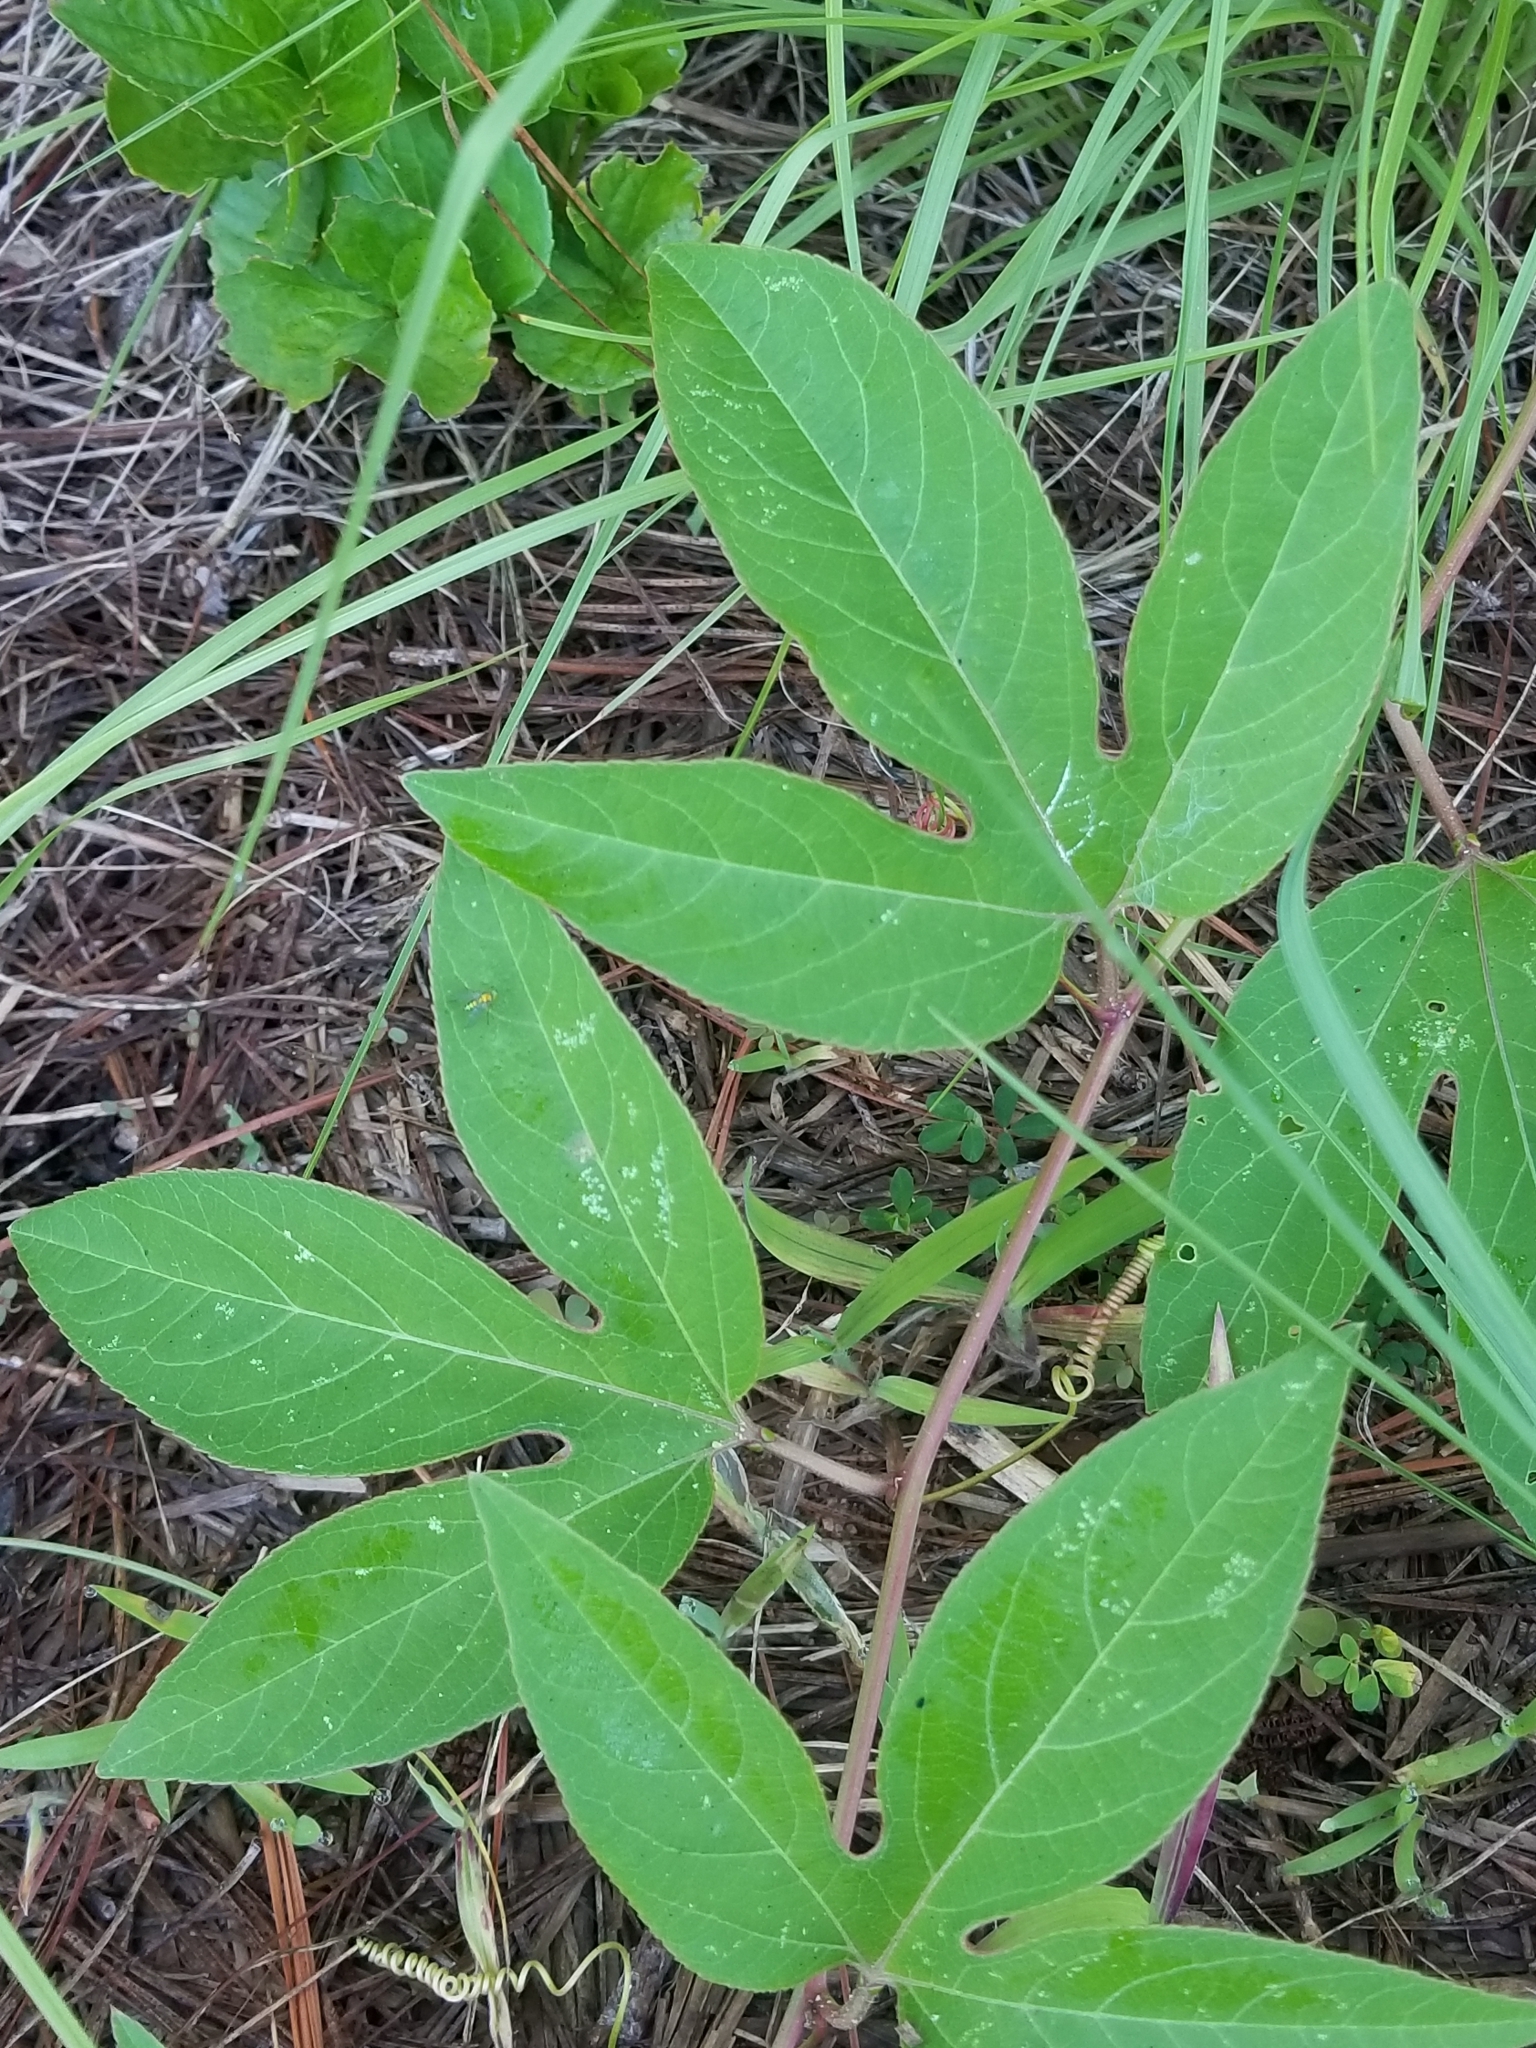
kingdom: Plantae
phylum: Tracheophyta
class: Magnoliopsida
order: Malpighiales
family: Passifloraceae
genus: Passiflora
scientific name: Passiflora incarnata
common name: Apricot-vine
